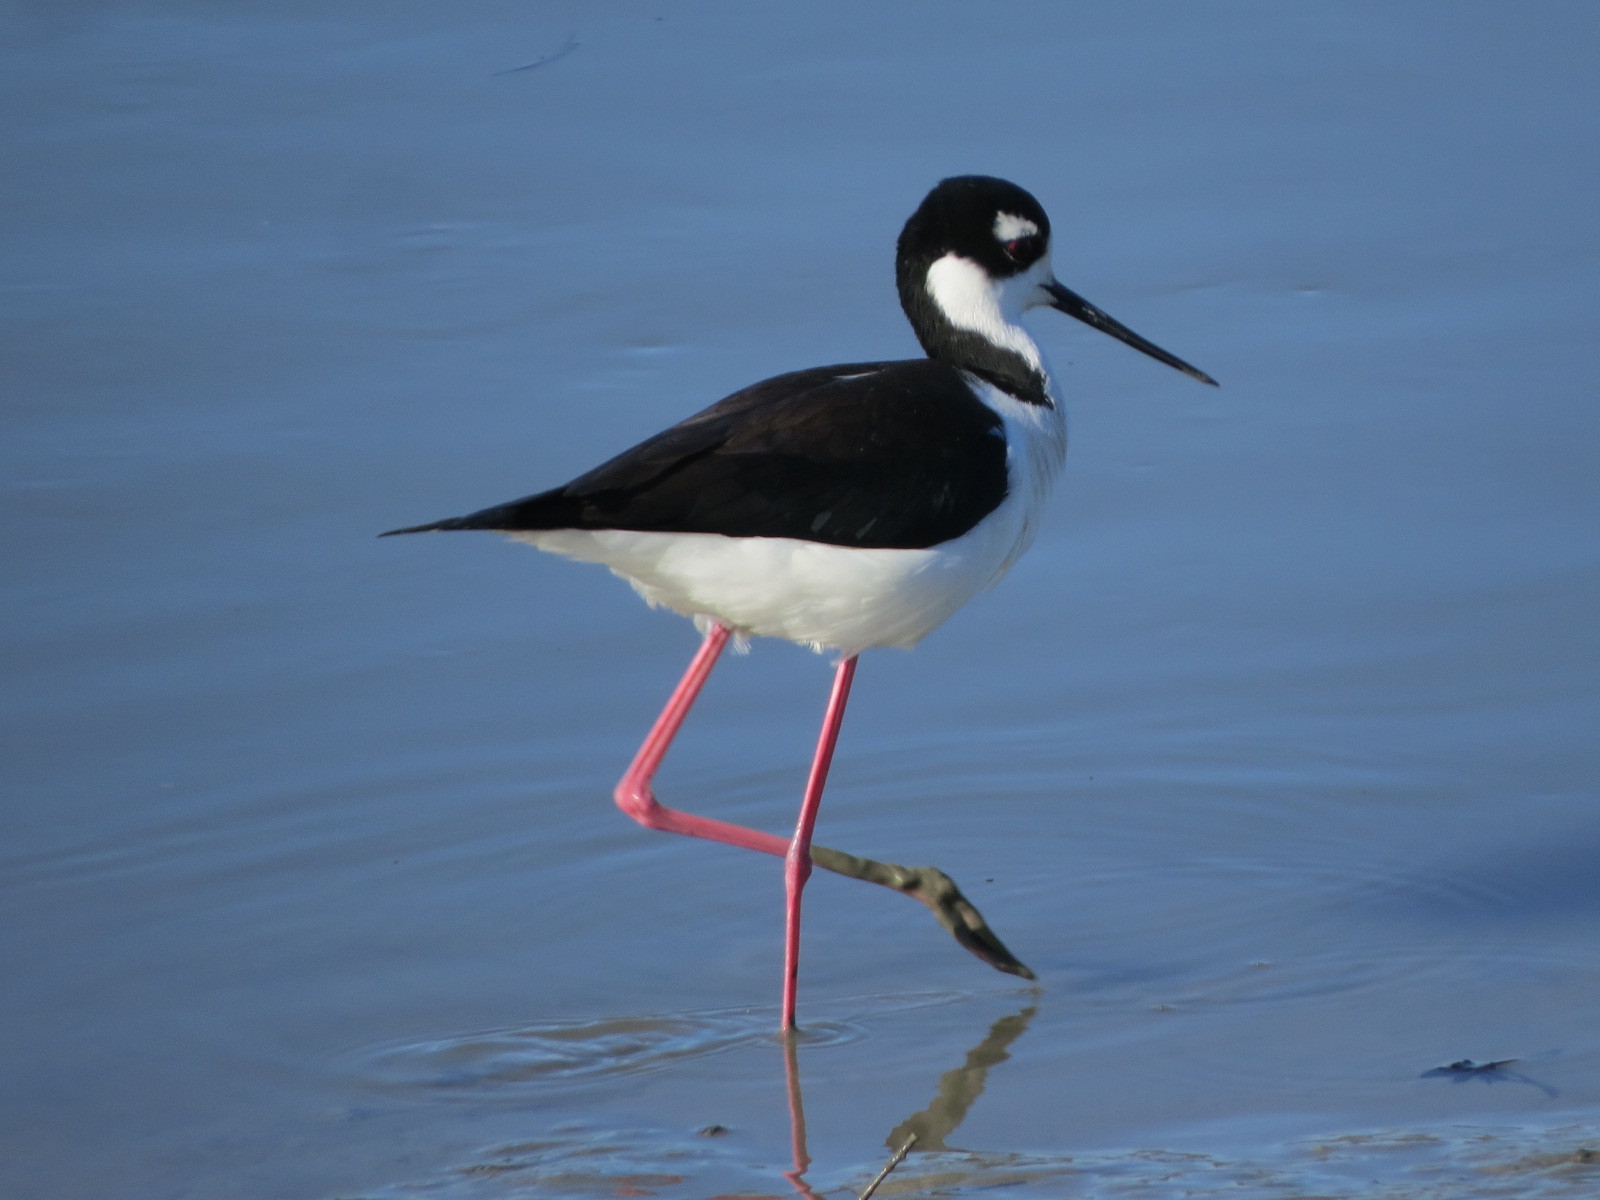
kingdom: Animalia
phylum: Chordata
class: Aves
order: Charadriiformes
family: Recurvirostridae
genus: Himantopus
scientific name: Himantopus mexicanus
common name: Black-necked stilt
